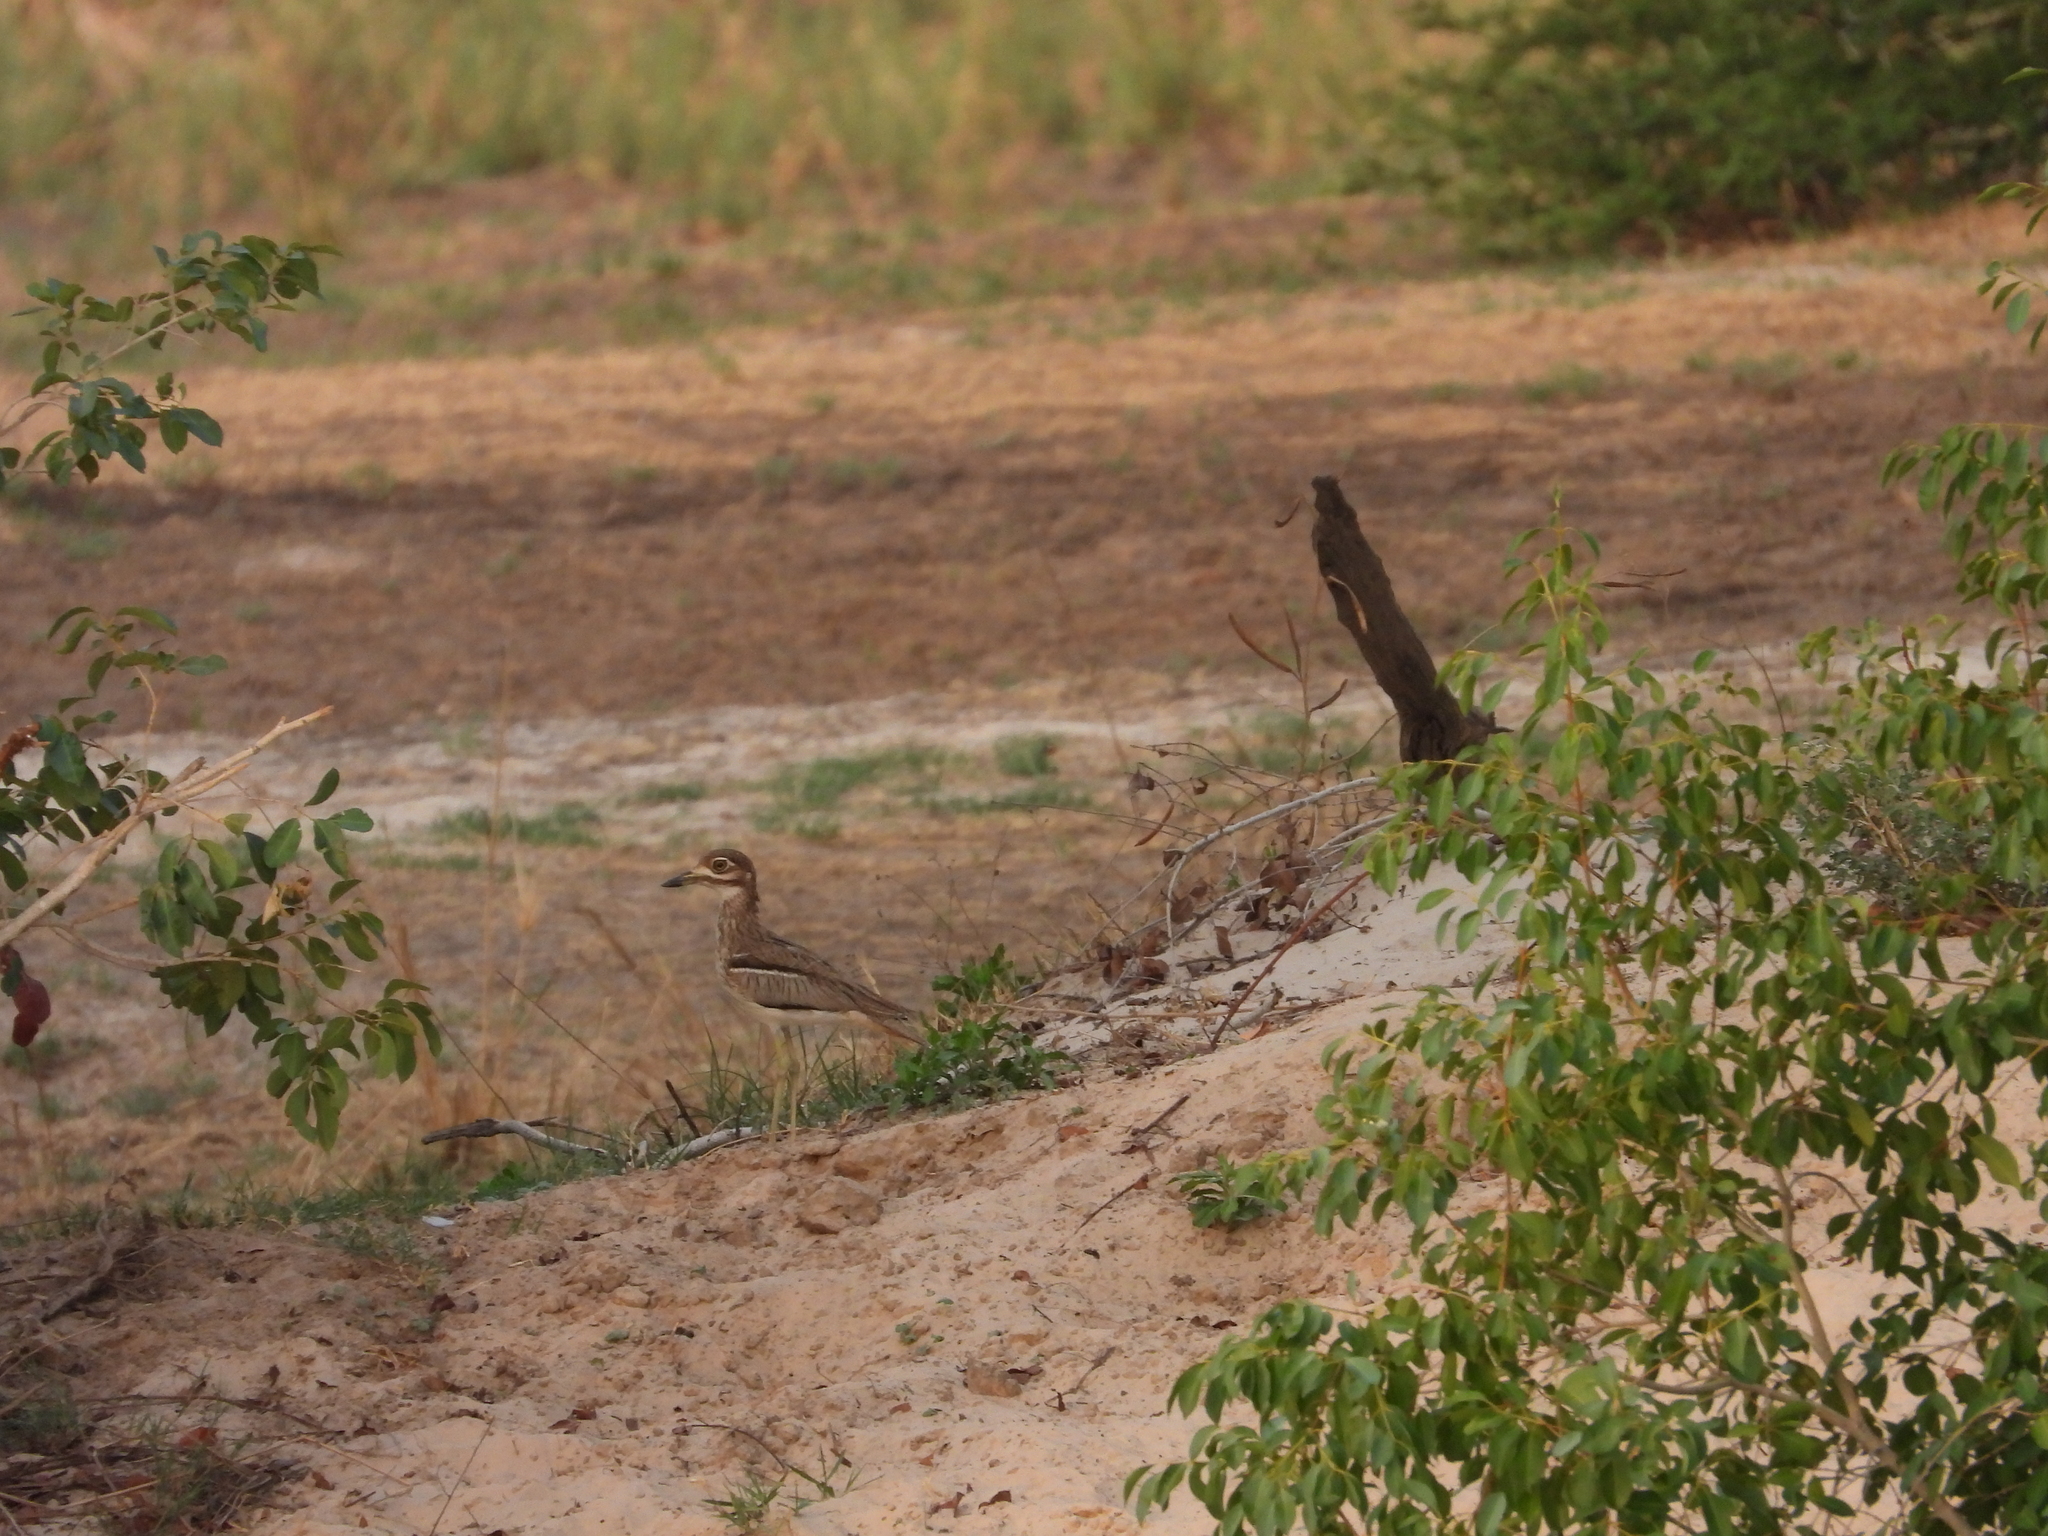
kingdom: Animalia
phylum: Chordata
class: Aves
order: Charadriiformes
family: Burhinidae
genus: Burhinus
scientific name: Burhinus vermiculatus
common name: Water thick-knee
